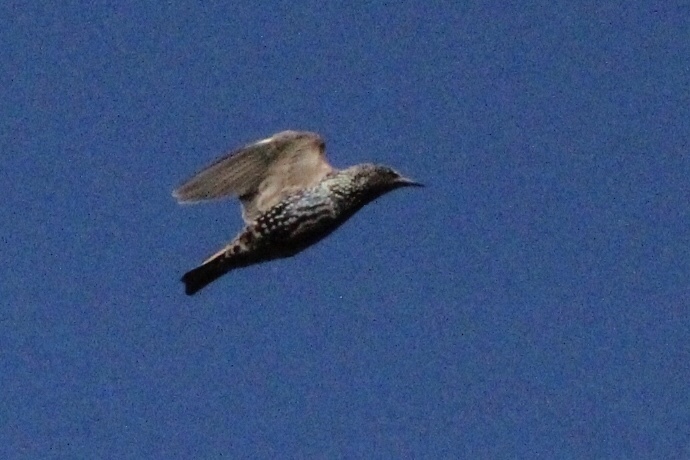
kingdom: Animalia
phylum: Chordata
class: Aves
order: Passeriformes
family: Sturnidae
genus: Sturnus
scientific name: Sturnus vulgaris
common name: Common starling
